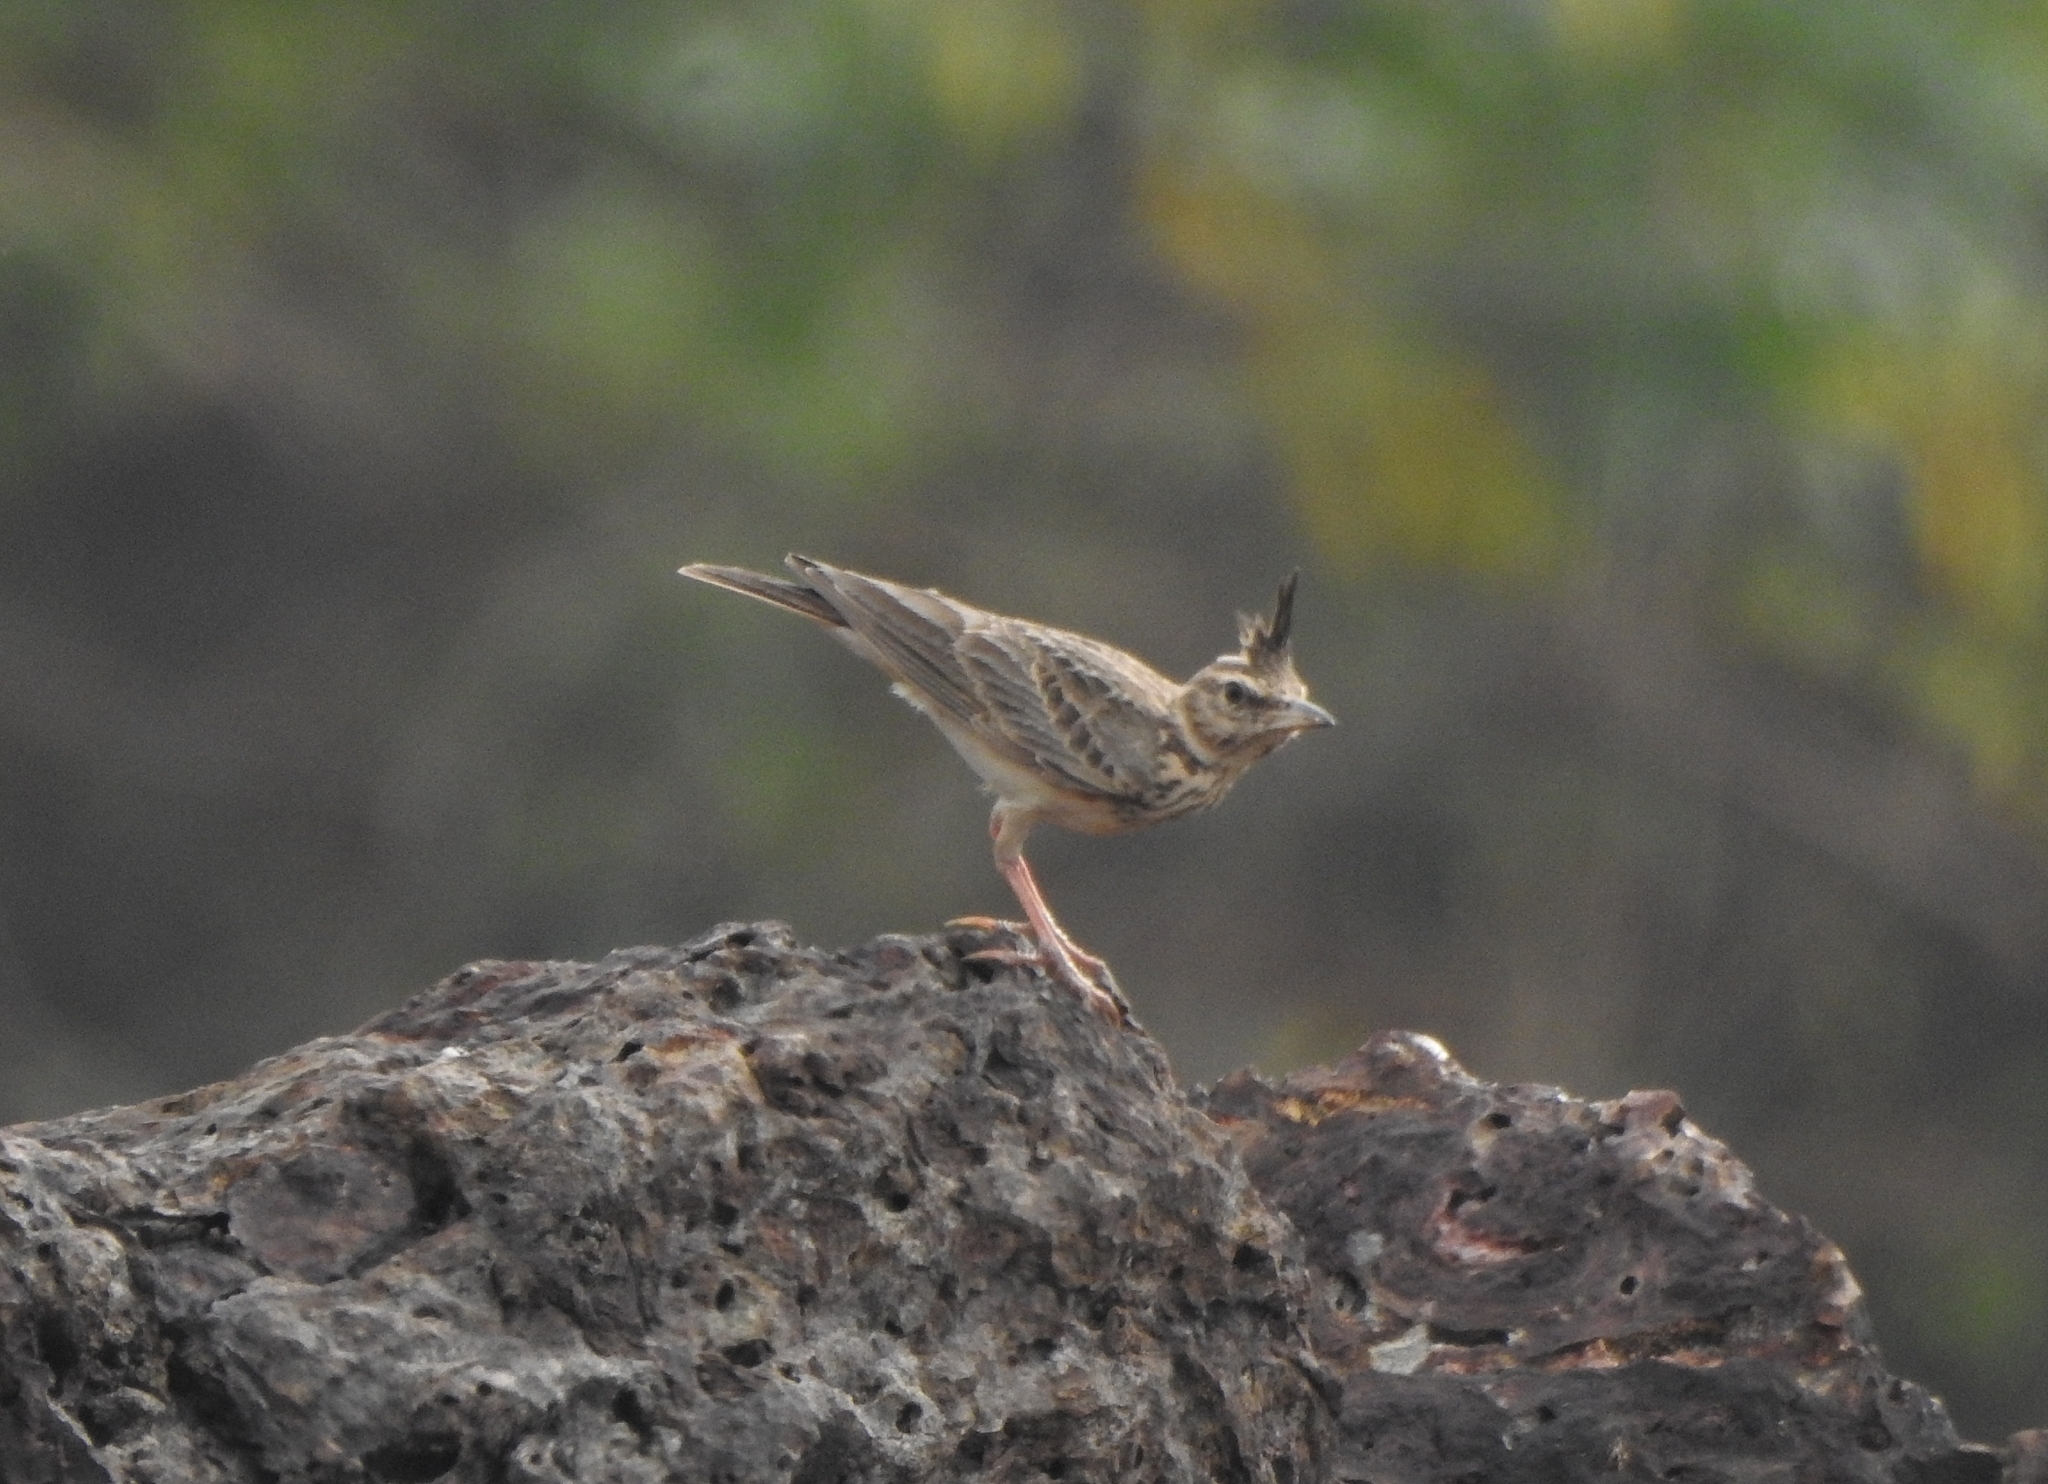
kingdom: Animalia
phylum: Chordata
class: Aves
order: Passeriformes
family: Alaudidae
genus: Galerida
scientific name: Galerida malabarica
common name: Malabar lark
